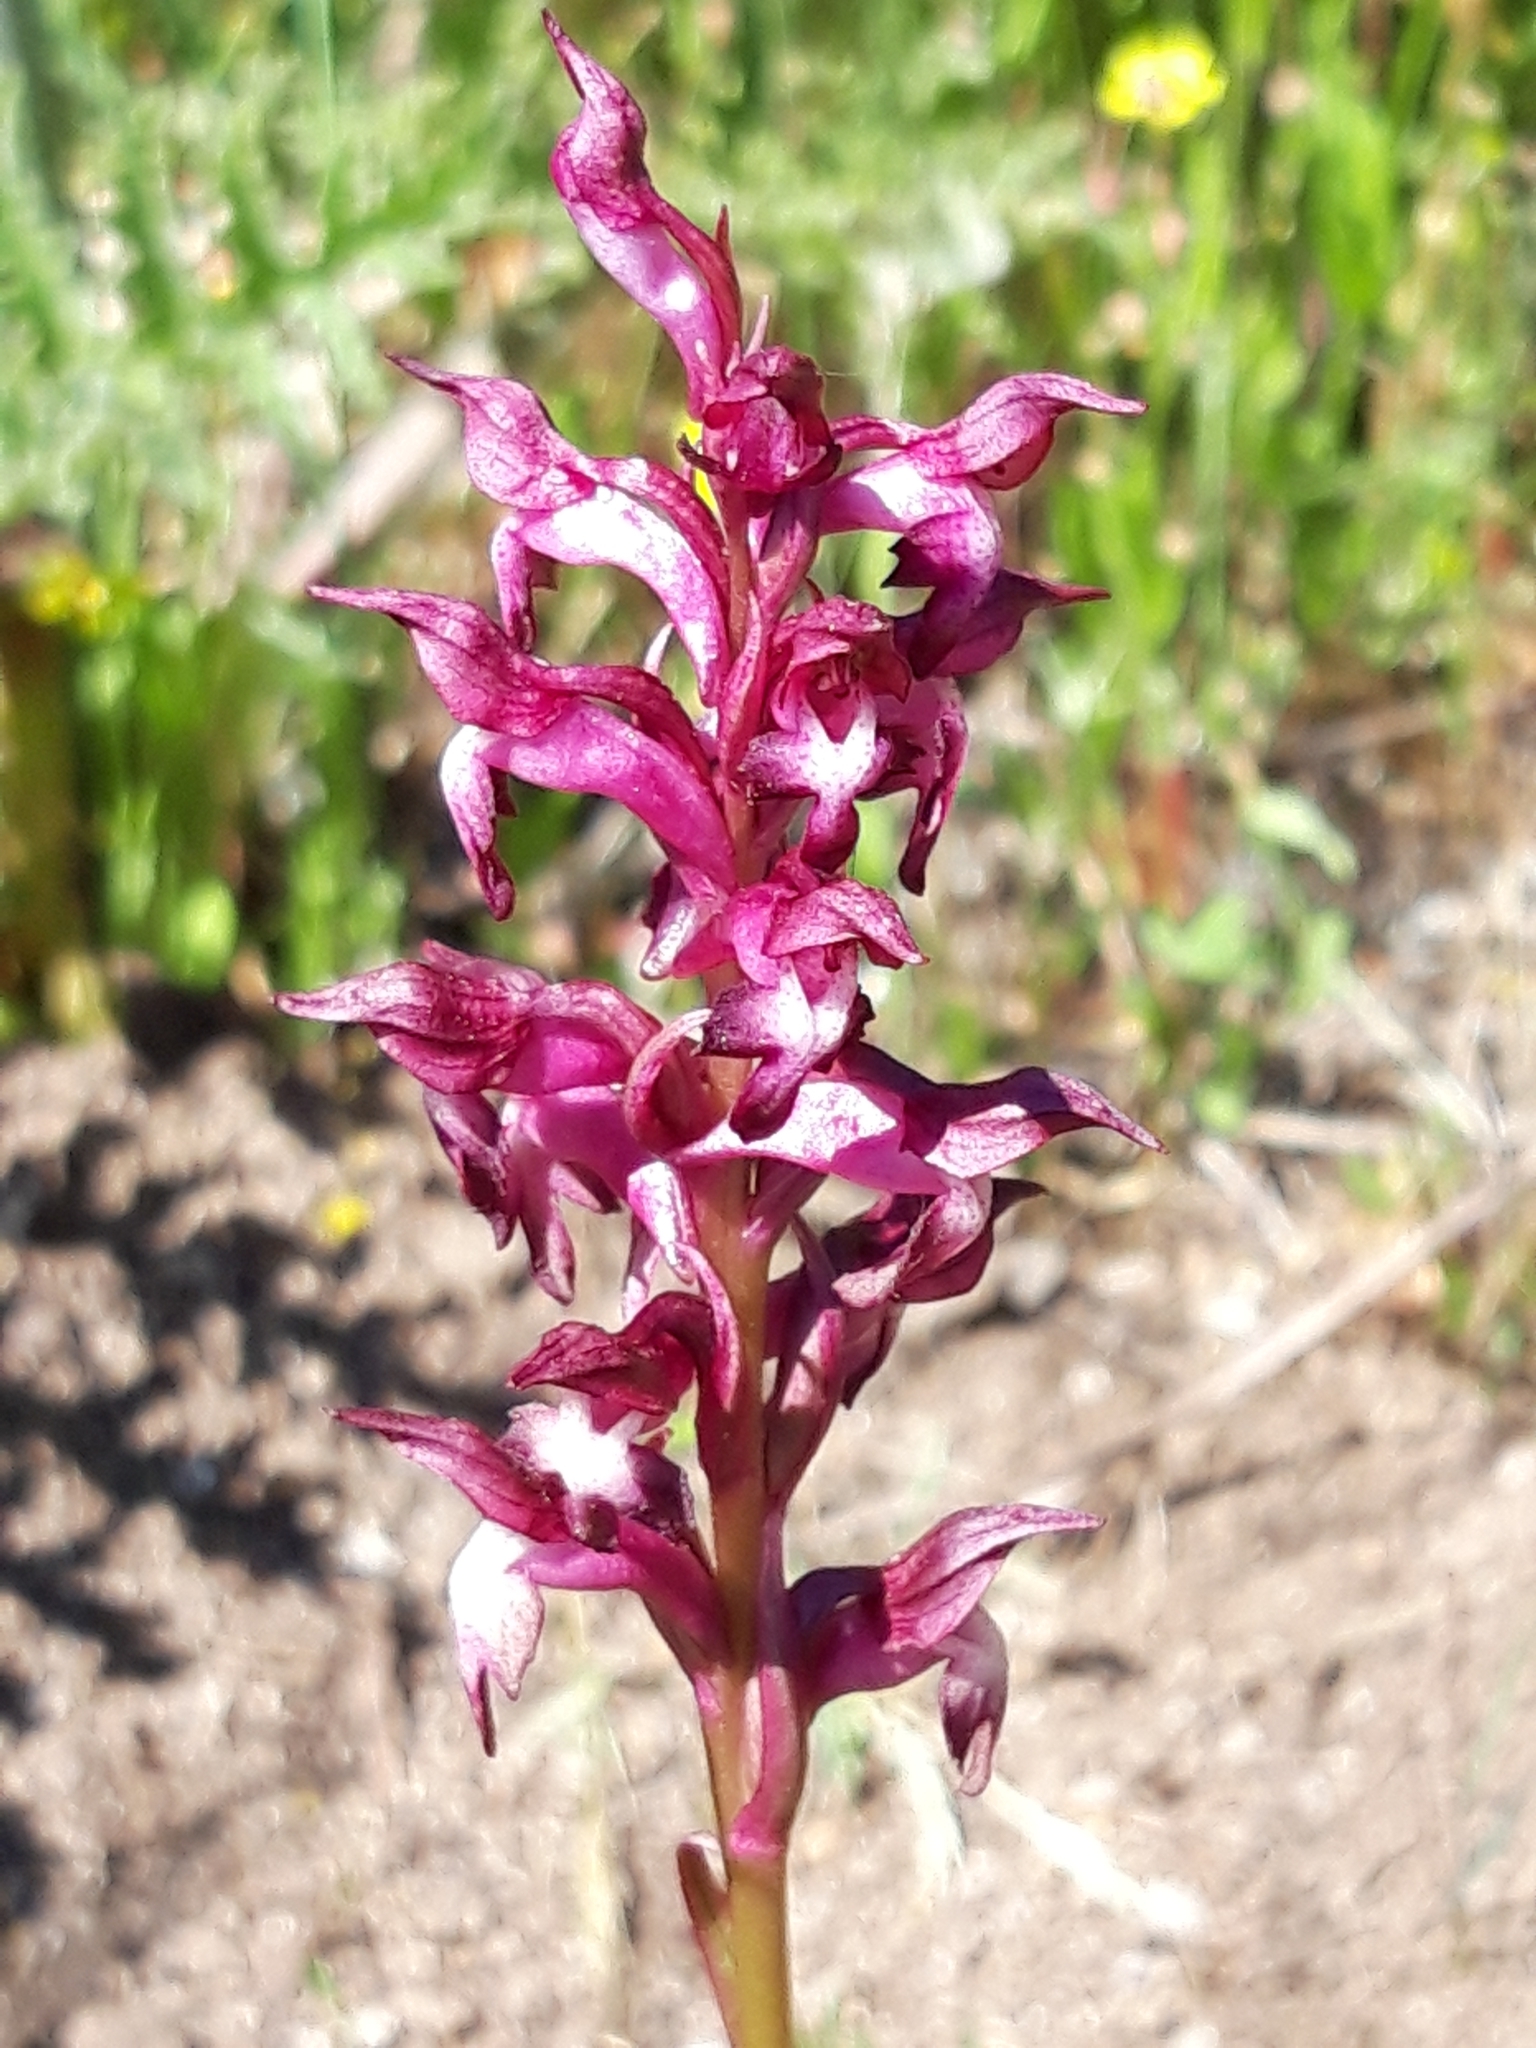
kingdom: Plantae
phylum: Tracheophyta
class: Liliopsida
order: Asparagales
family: Orchidaceae
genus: Anacamptis
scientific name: Anacamptis coriophora
